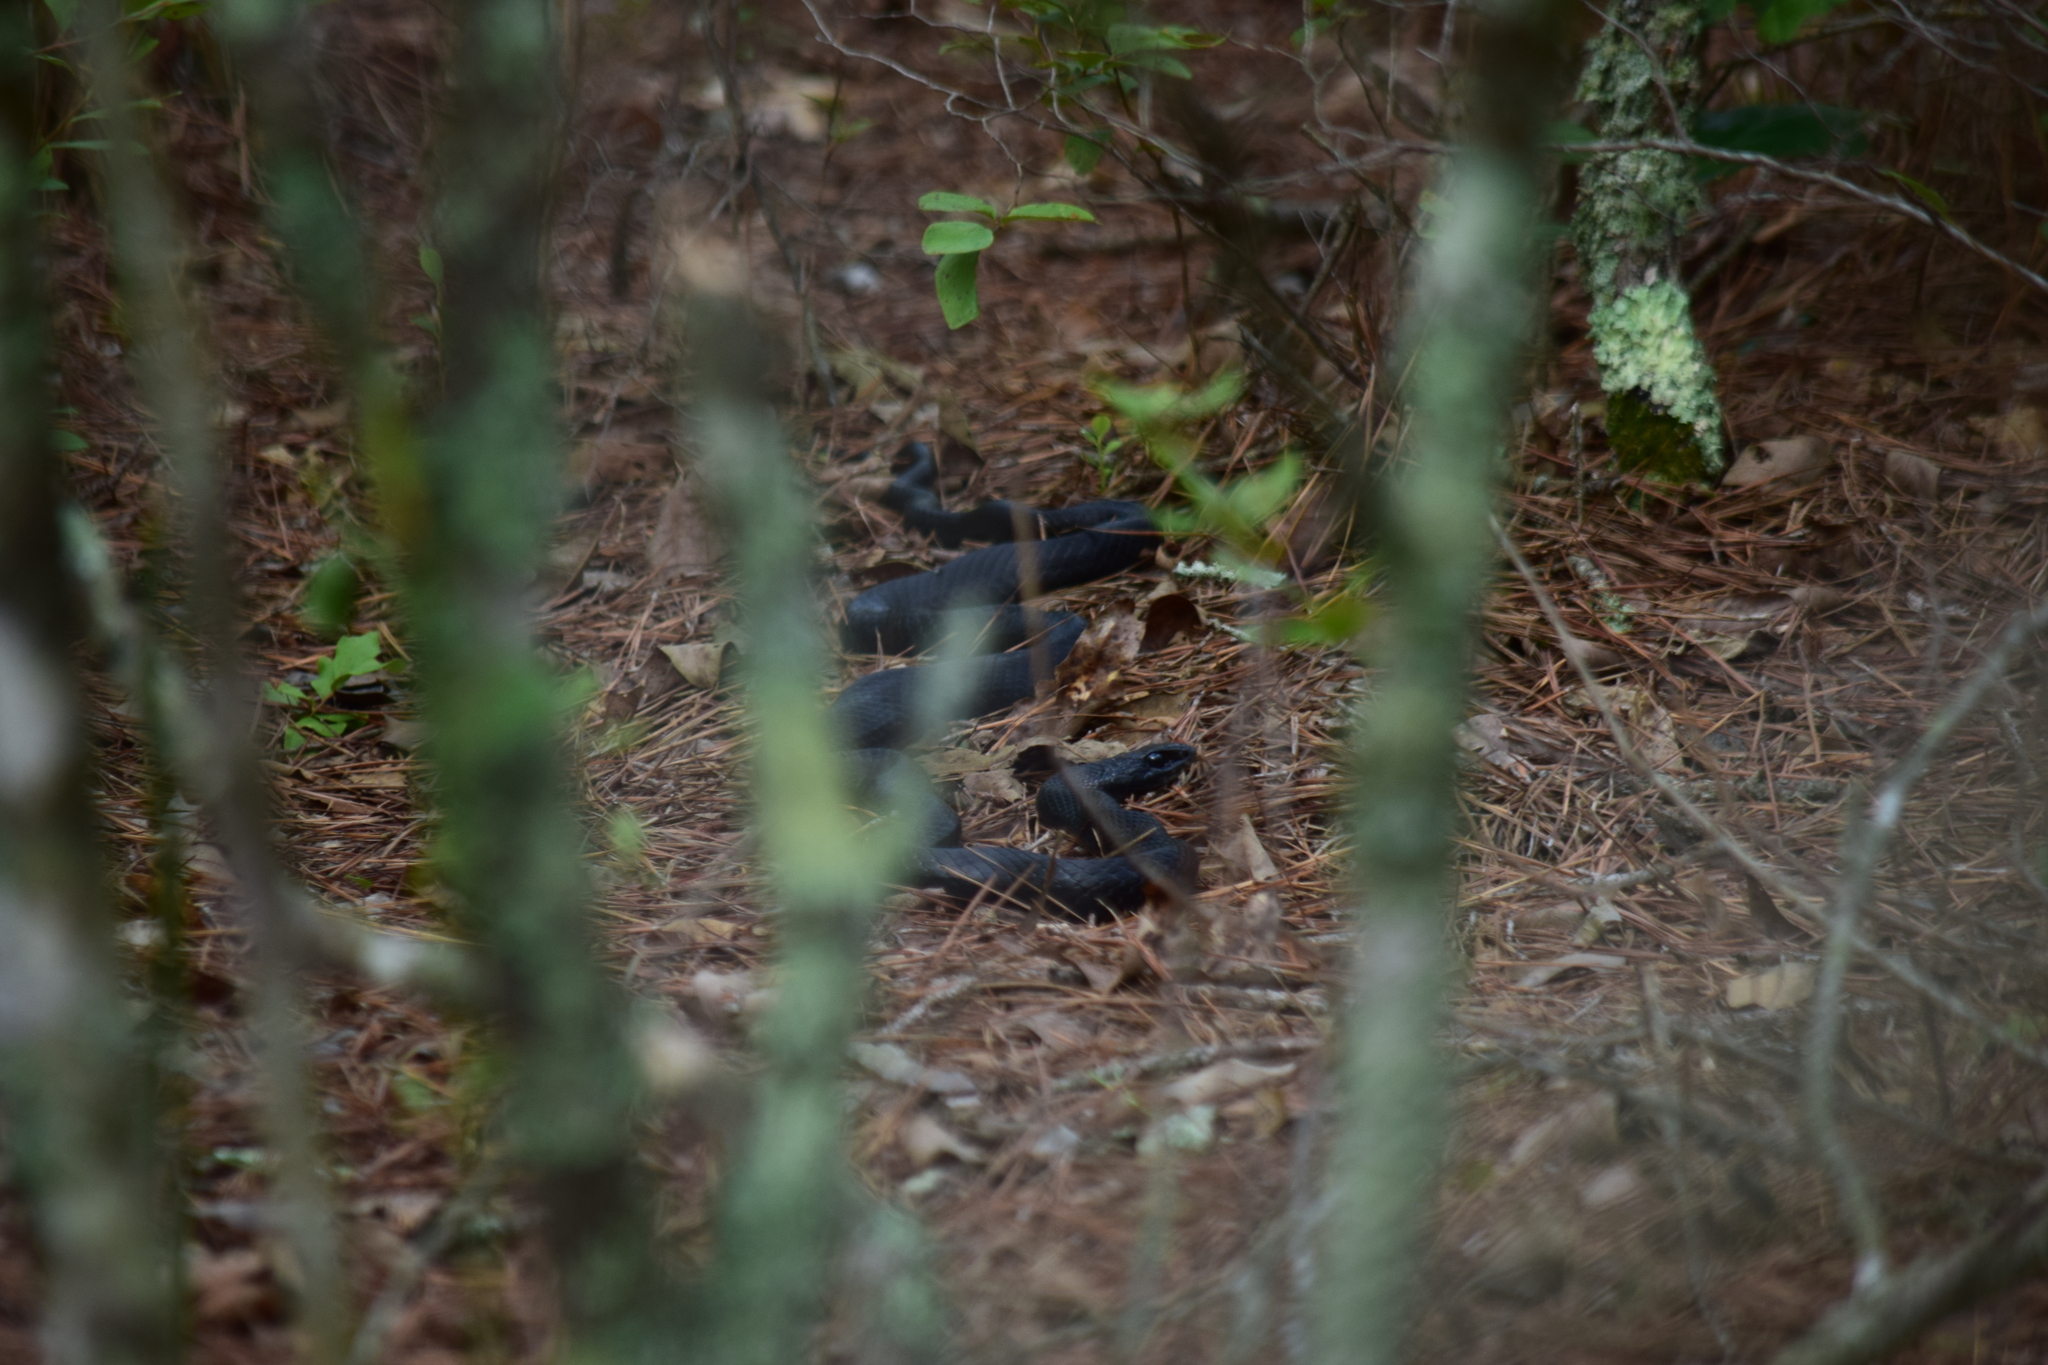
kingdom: Animalia
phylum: Chordata
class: Squamata
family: Colubridae
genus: Coluber
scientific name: Coluber constrictor
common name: Eastern racer
